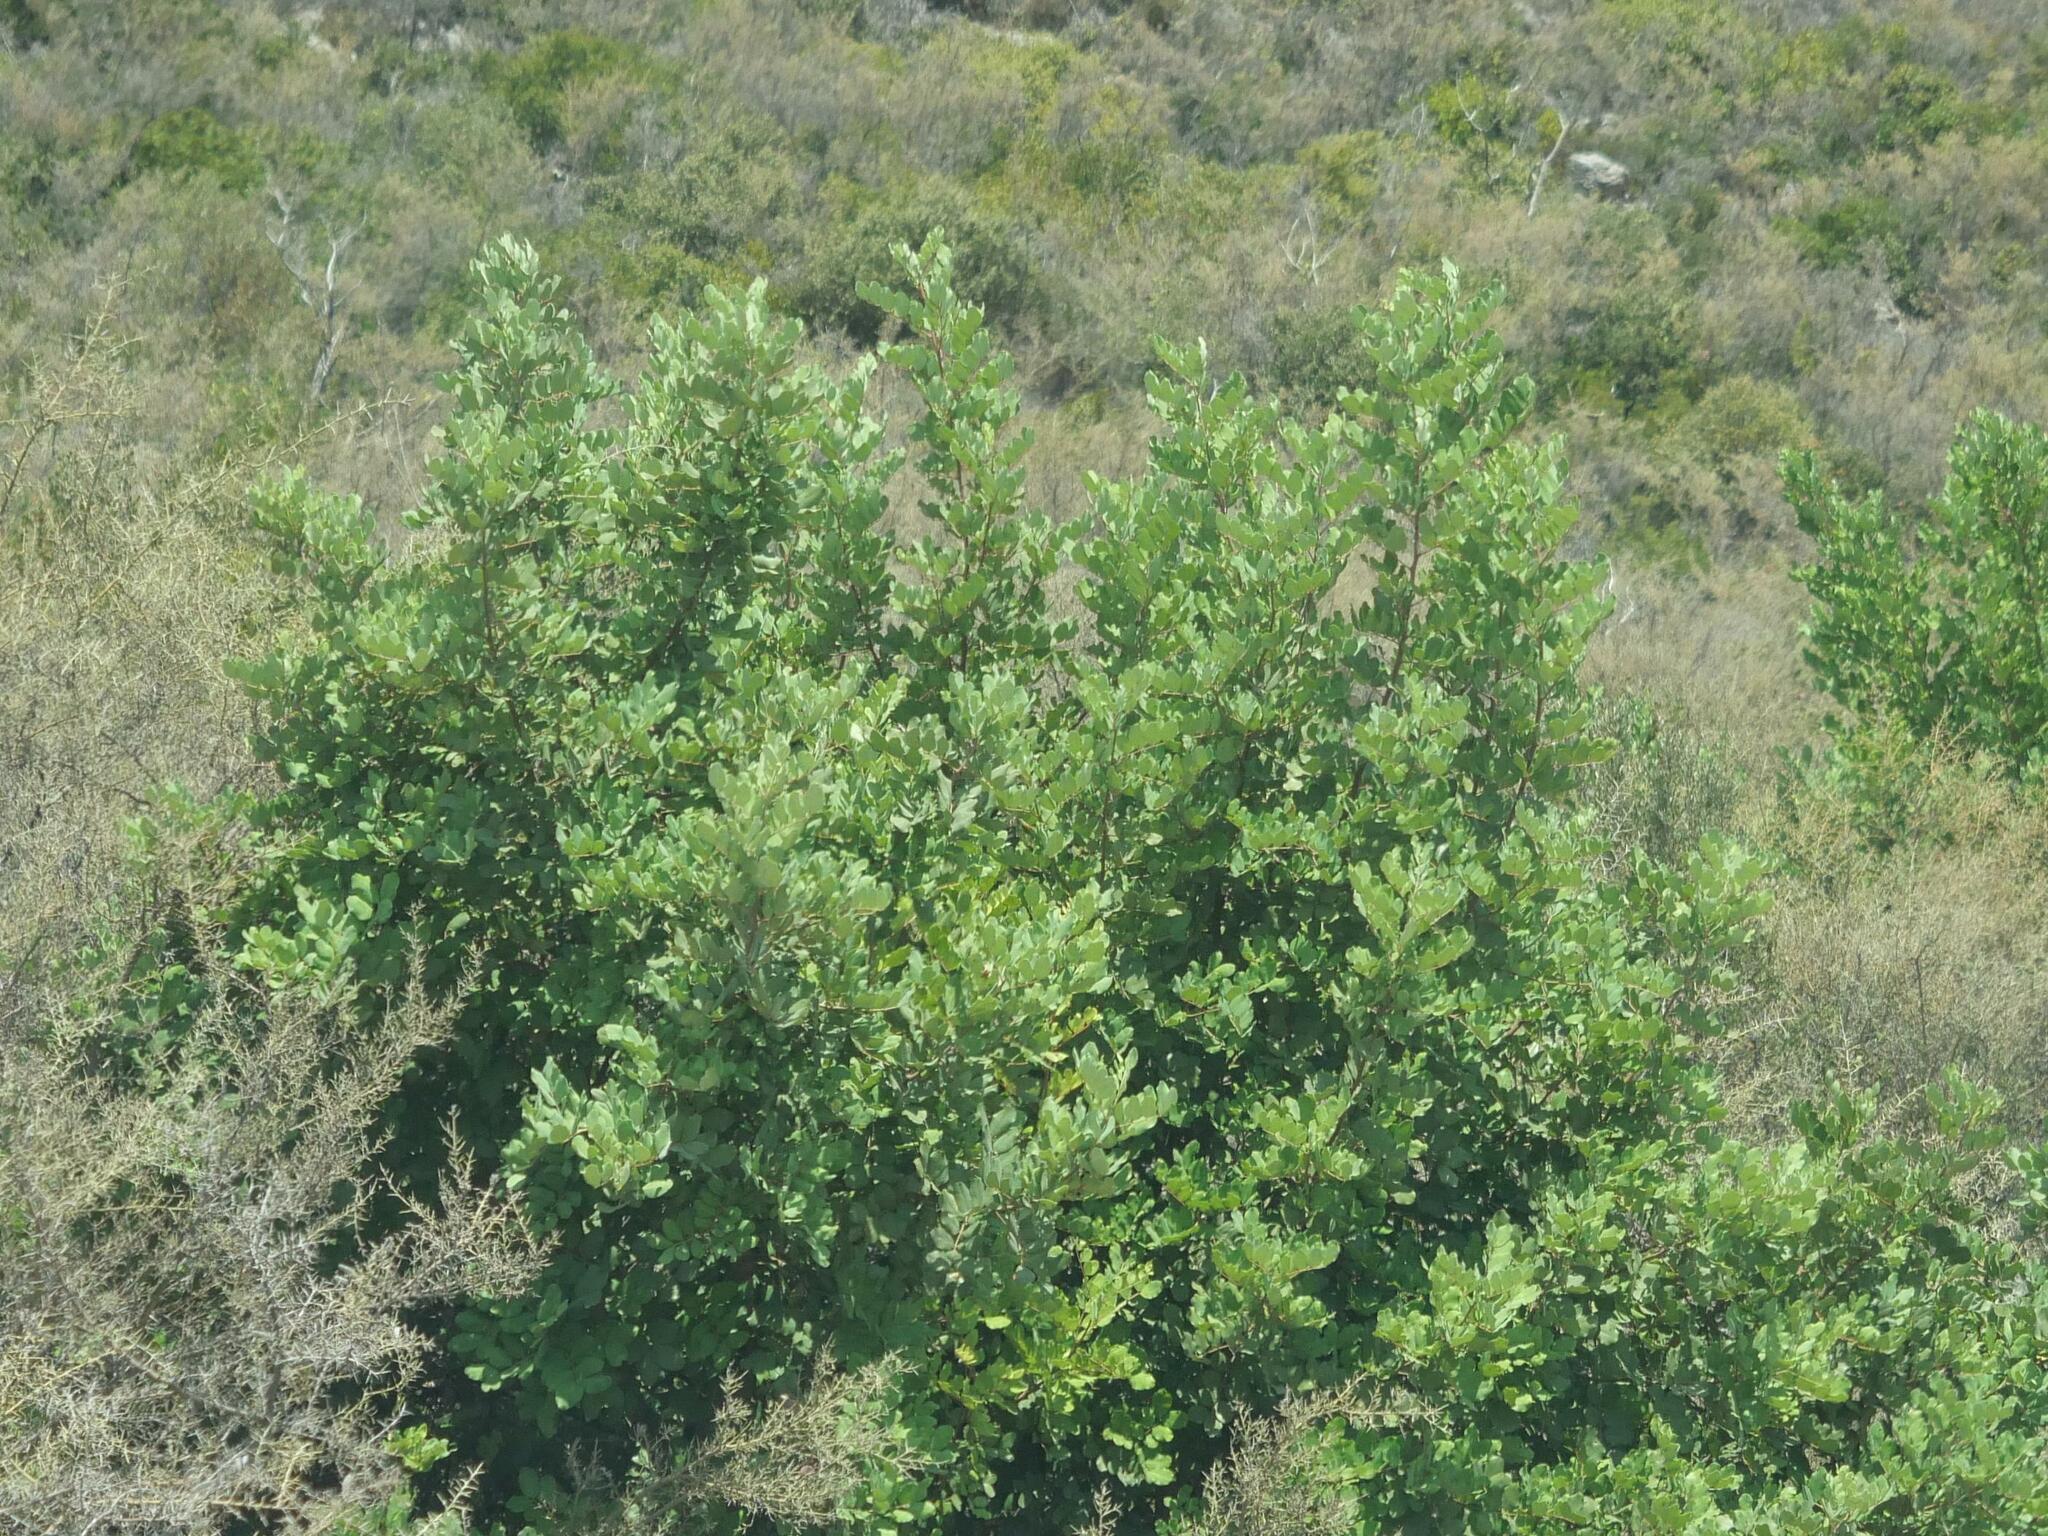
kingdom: Plantae
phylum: Tracheophyta
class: Magnoliopsida
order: Fabales
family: Fabaceae
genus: Ceratonia
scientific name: Ceratonia siliqua
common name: Carob
